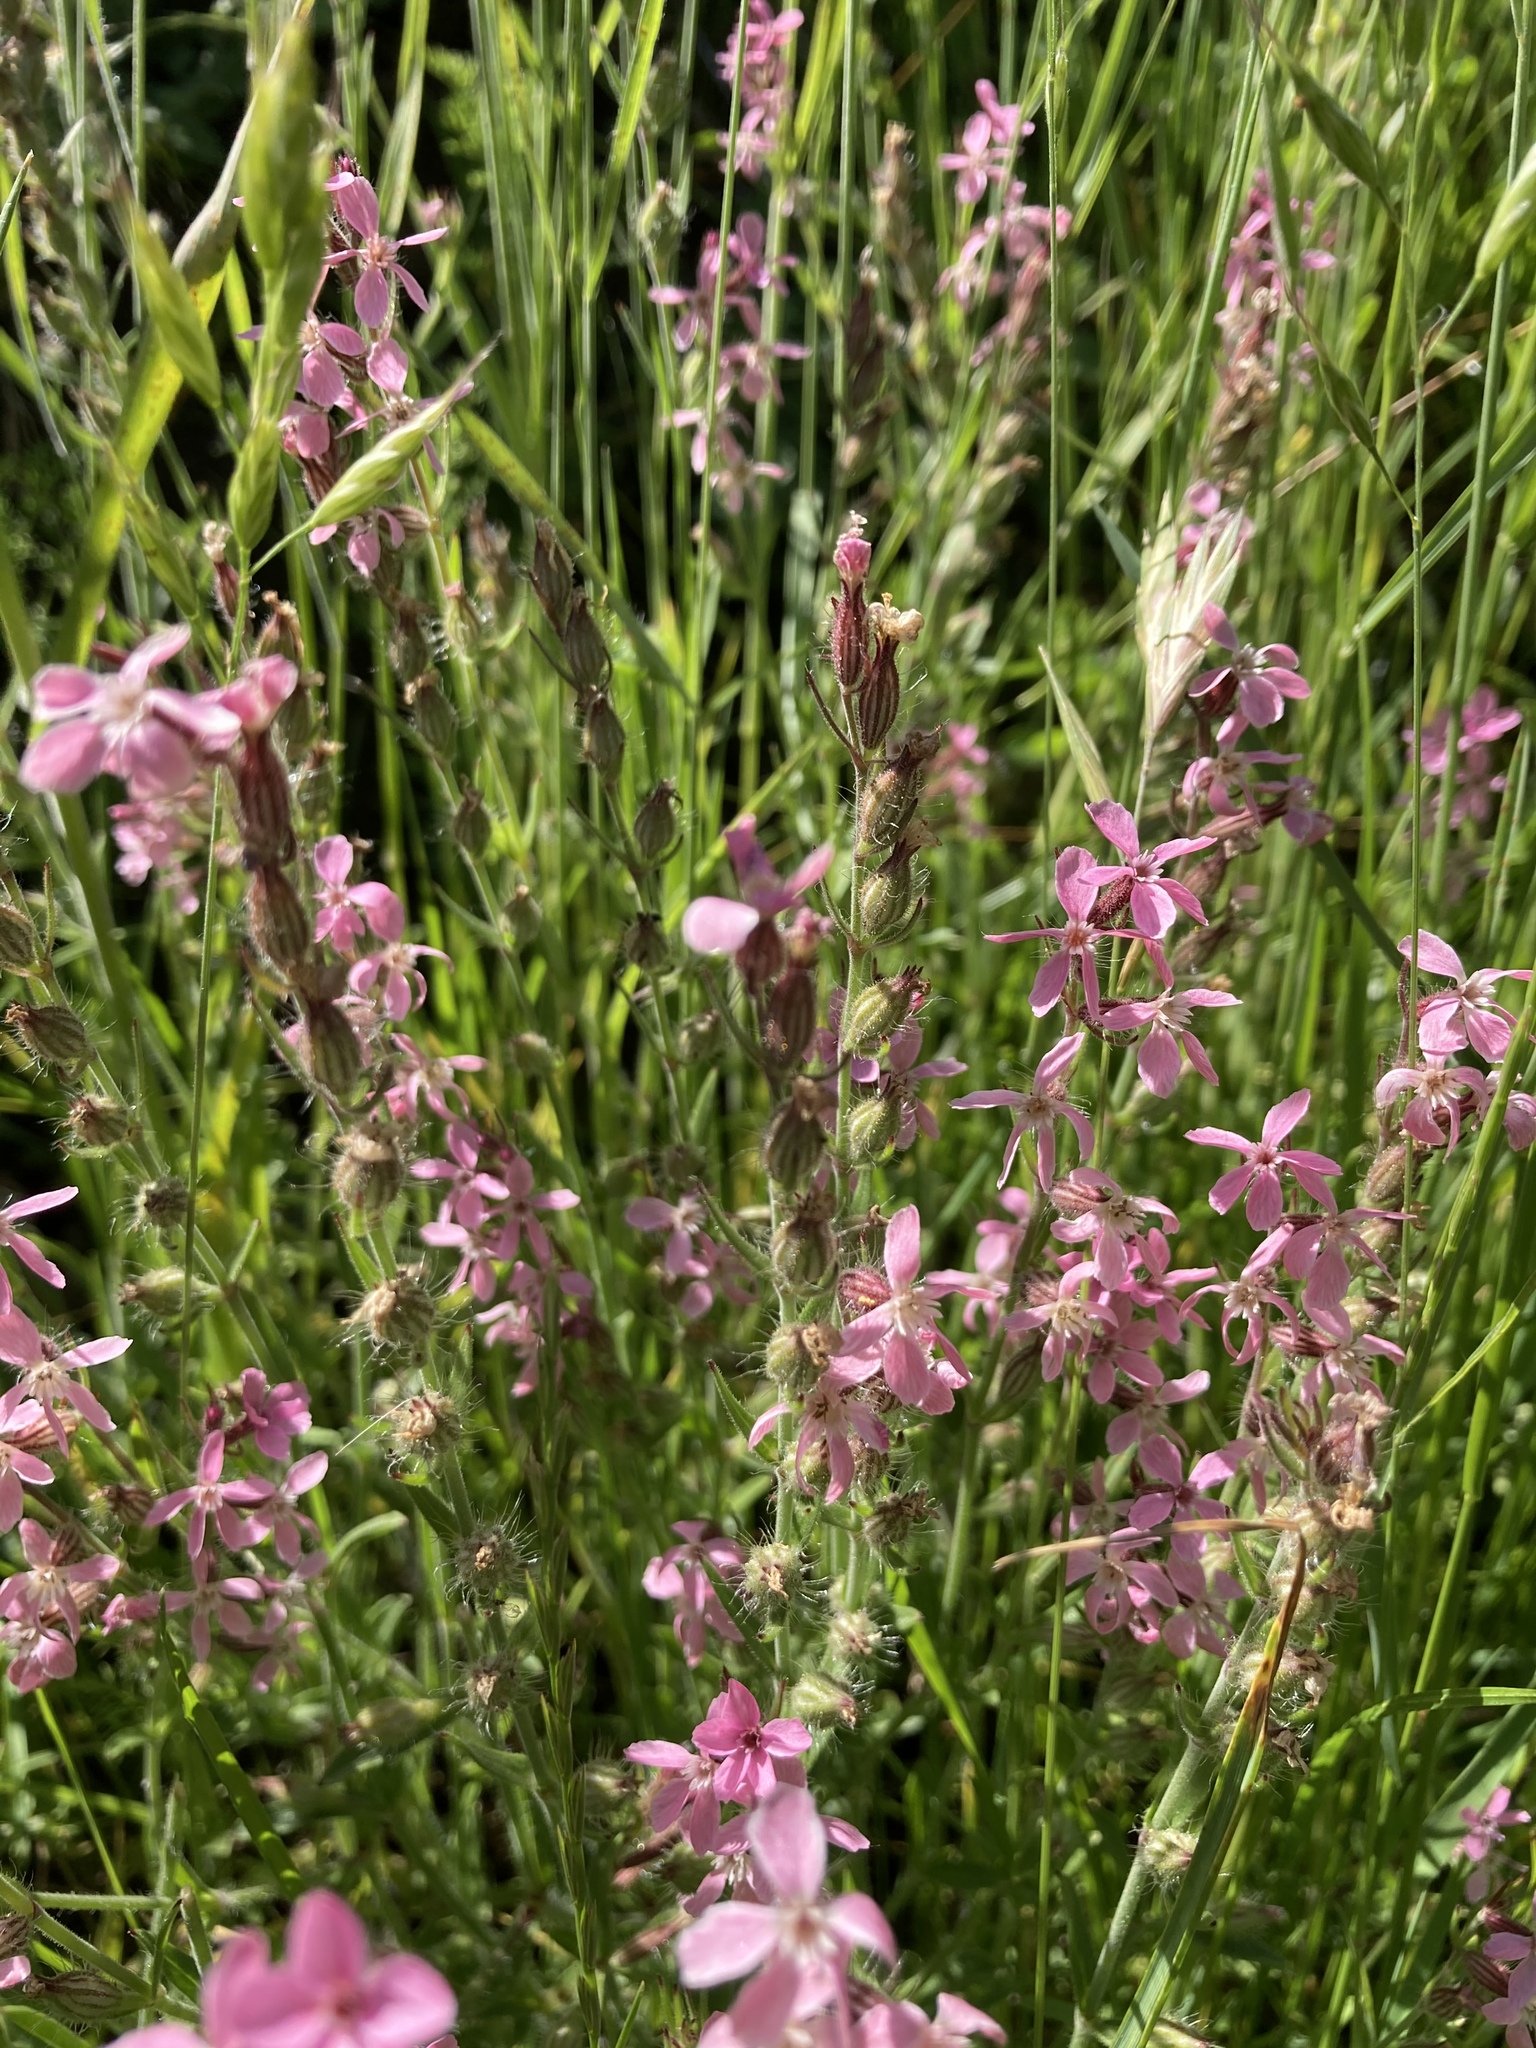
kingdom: Plantae
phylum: Tracheophyta
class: Magnoliopsida
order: Caryophyllales
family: Caryophyllaceae
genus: Silene
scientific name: Silene gallica
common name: Small-flowered catchfly
